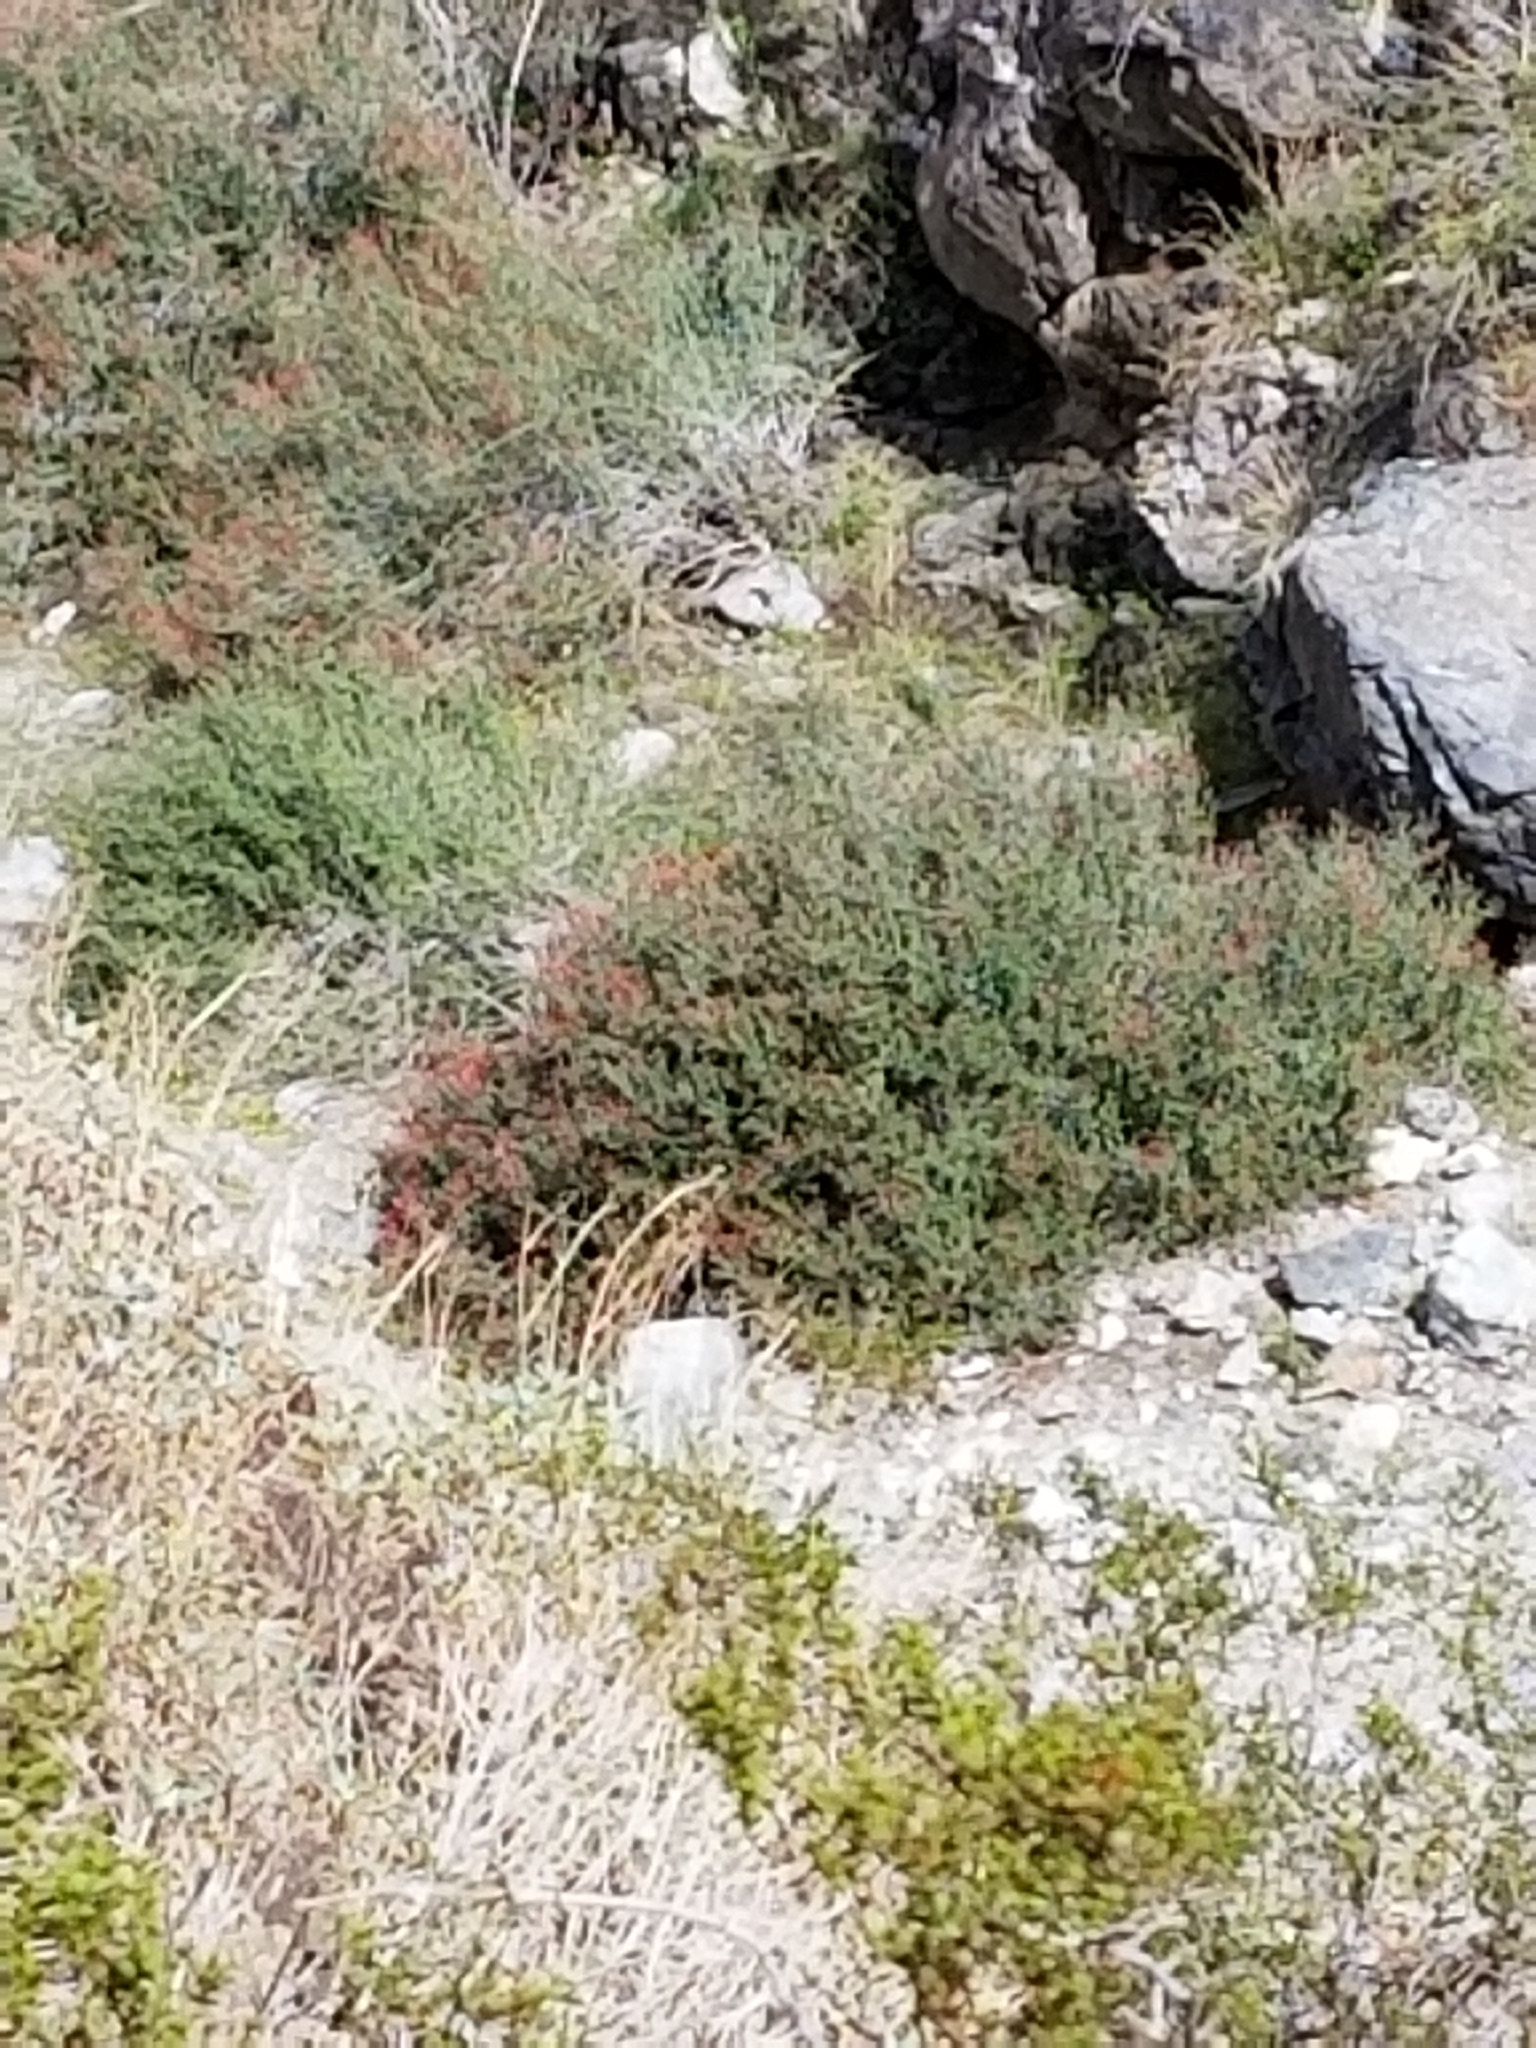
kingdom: Plantae
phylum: Tracheophyta
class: Magnoliopsida
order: Lamiales
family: Acanthaceae
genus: Justicia
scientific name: Justicia californica
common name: Chuparosa-honeysuckle
